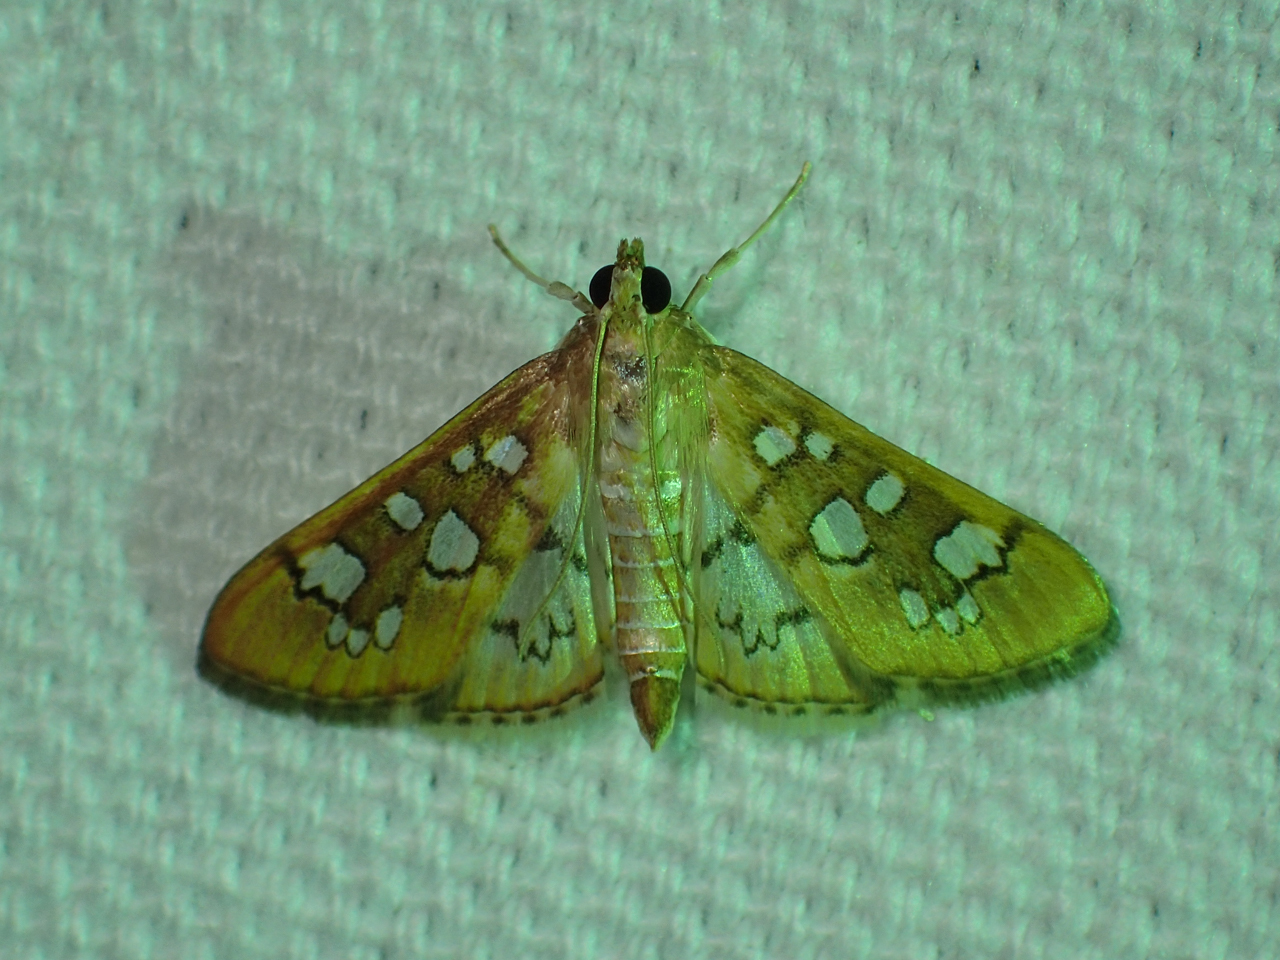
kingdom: Animalia
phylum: Arthropoda
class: Insecta
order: Lepidoptera
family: Crambidae
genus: Samea
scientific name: Samea baccatalis
